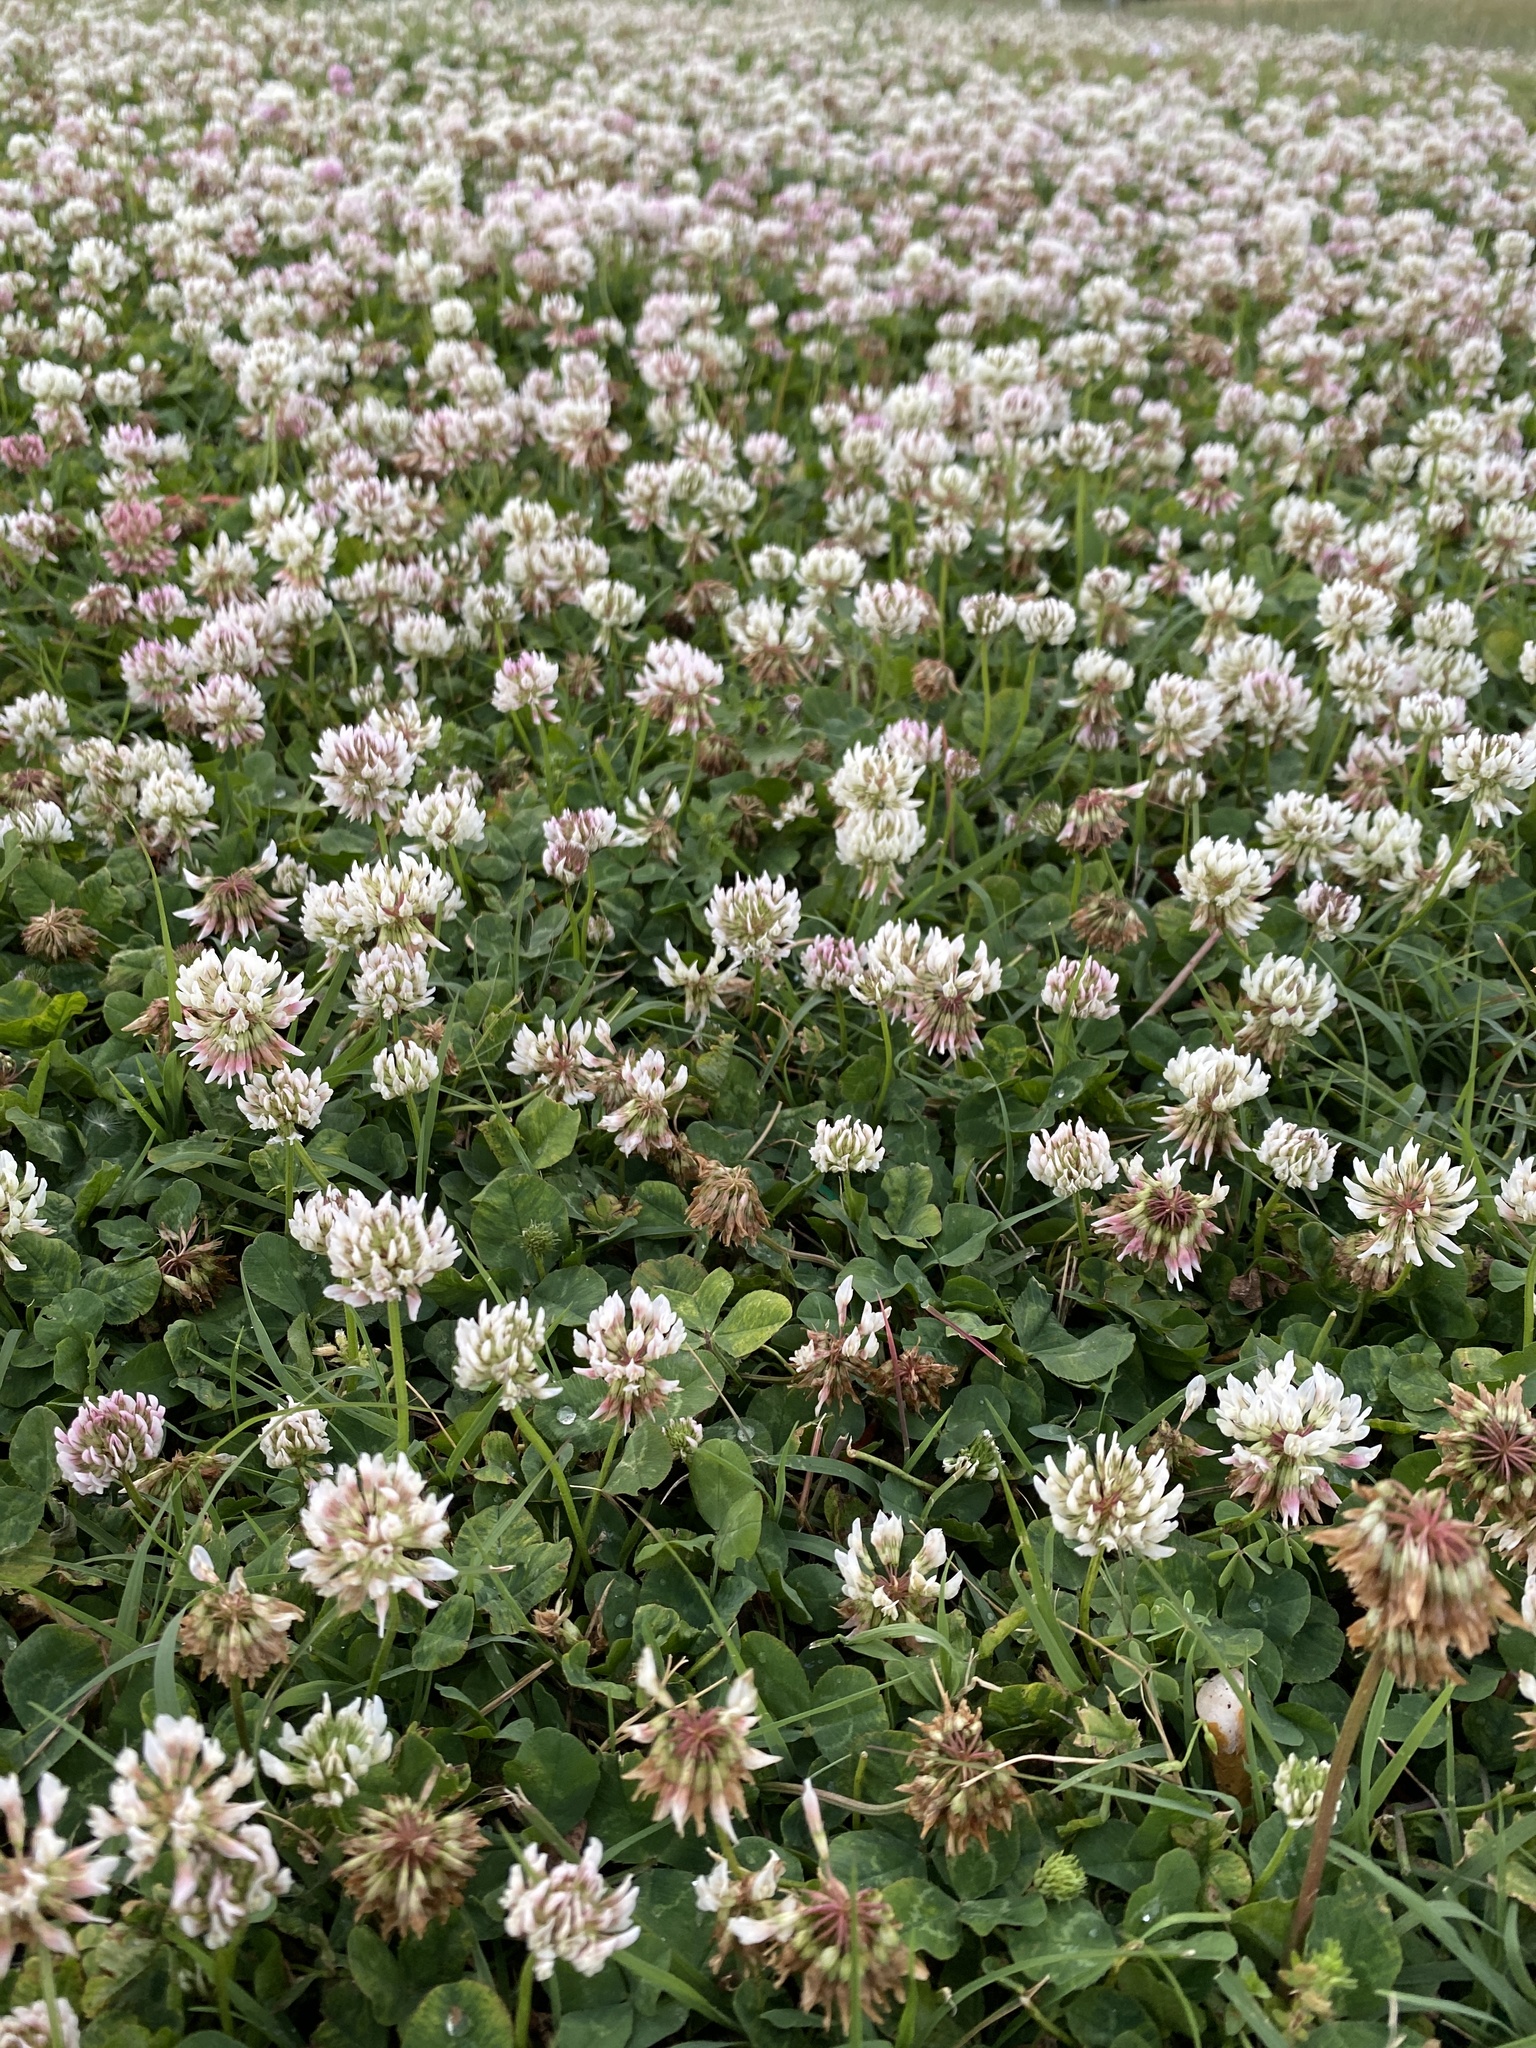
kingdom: Plantae
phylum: Tracheophyta
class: Magnoliopsida
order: Fabales
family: Fabaceae
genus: Trifolium
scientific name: Trifolium repens
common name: White clover
